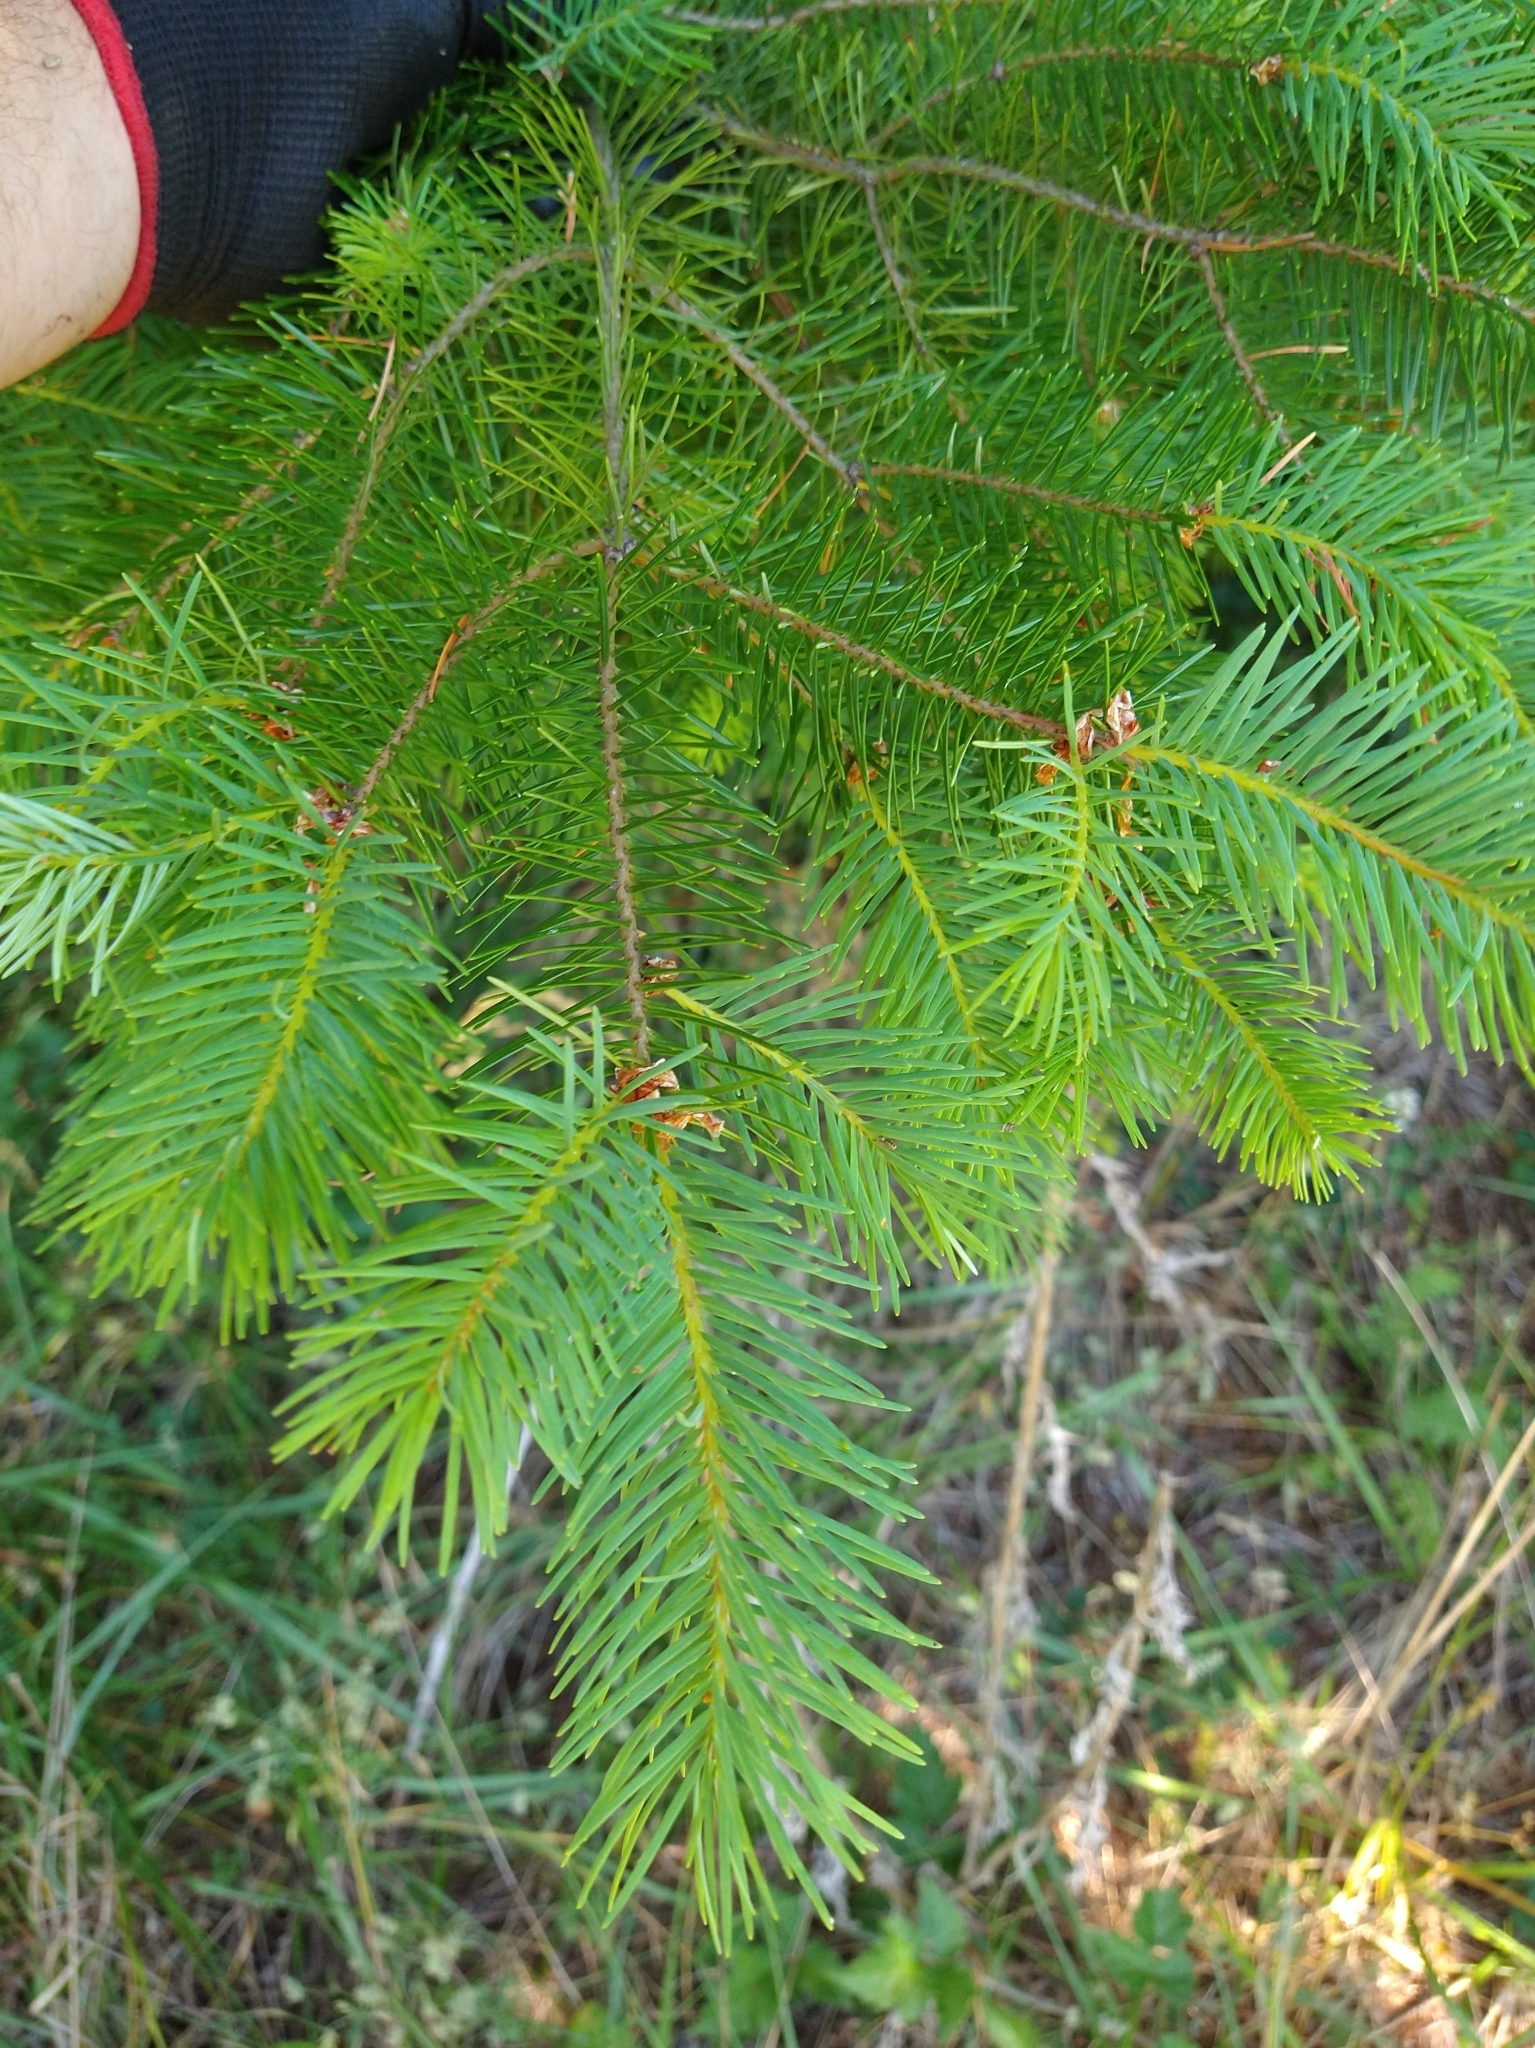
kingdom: Plantae
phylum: Tracheophyta
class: Pinopsida
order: Pinales
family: Pinaceae
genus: Pseudotsuga
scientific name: Pseudotsuga menziesii
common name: Douglas fir
